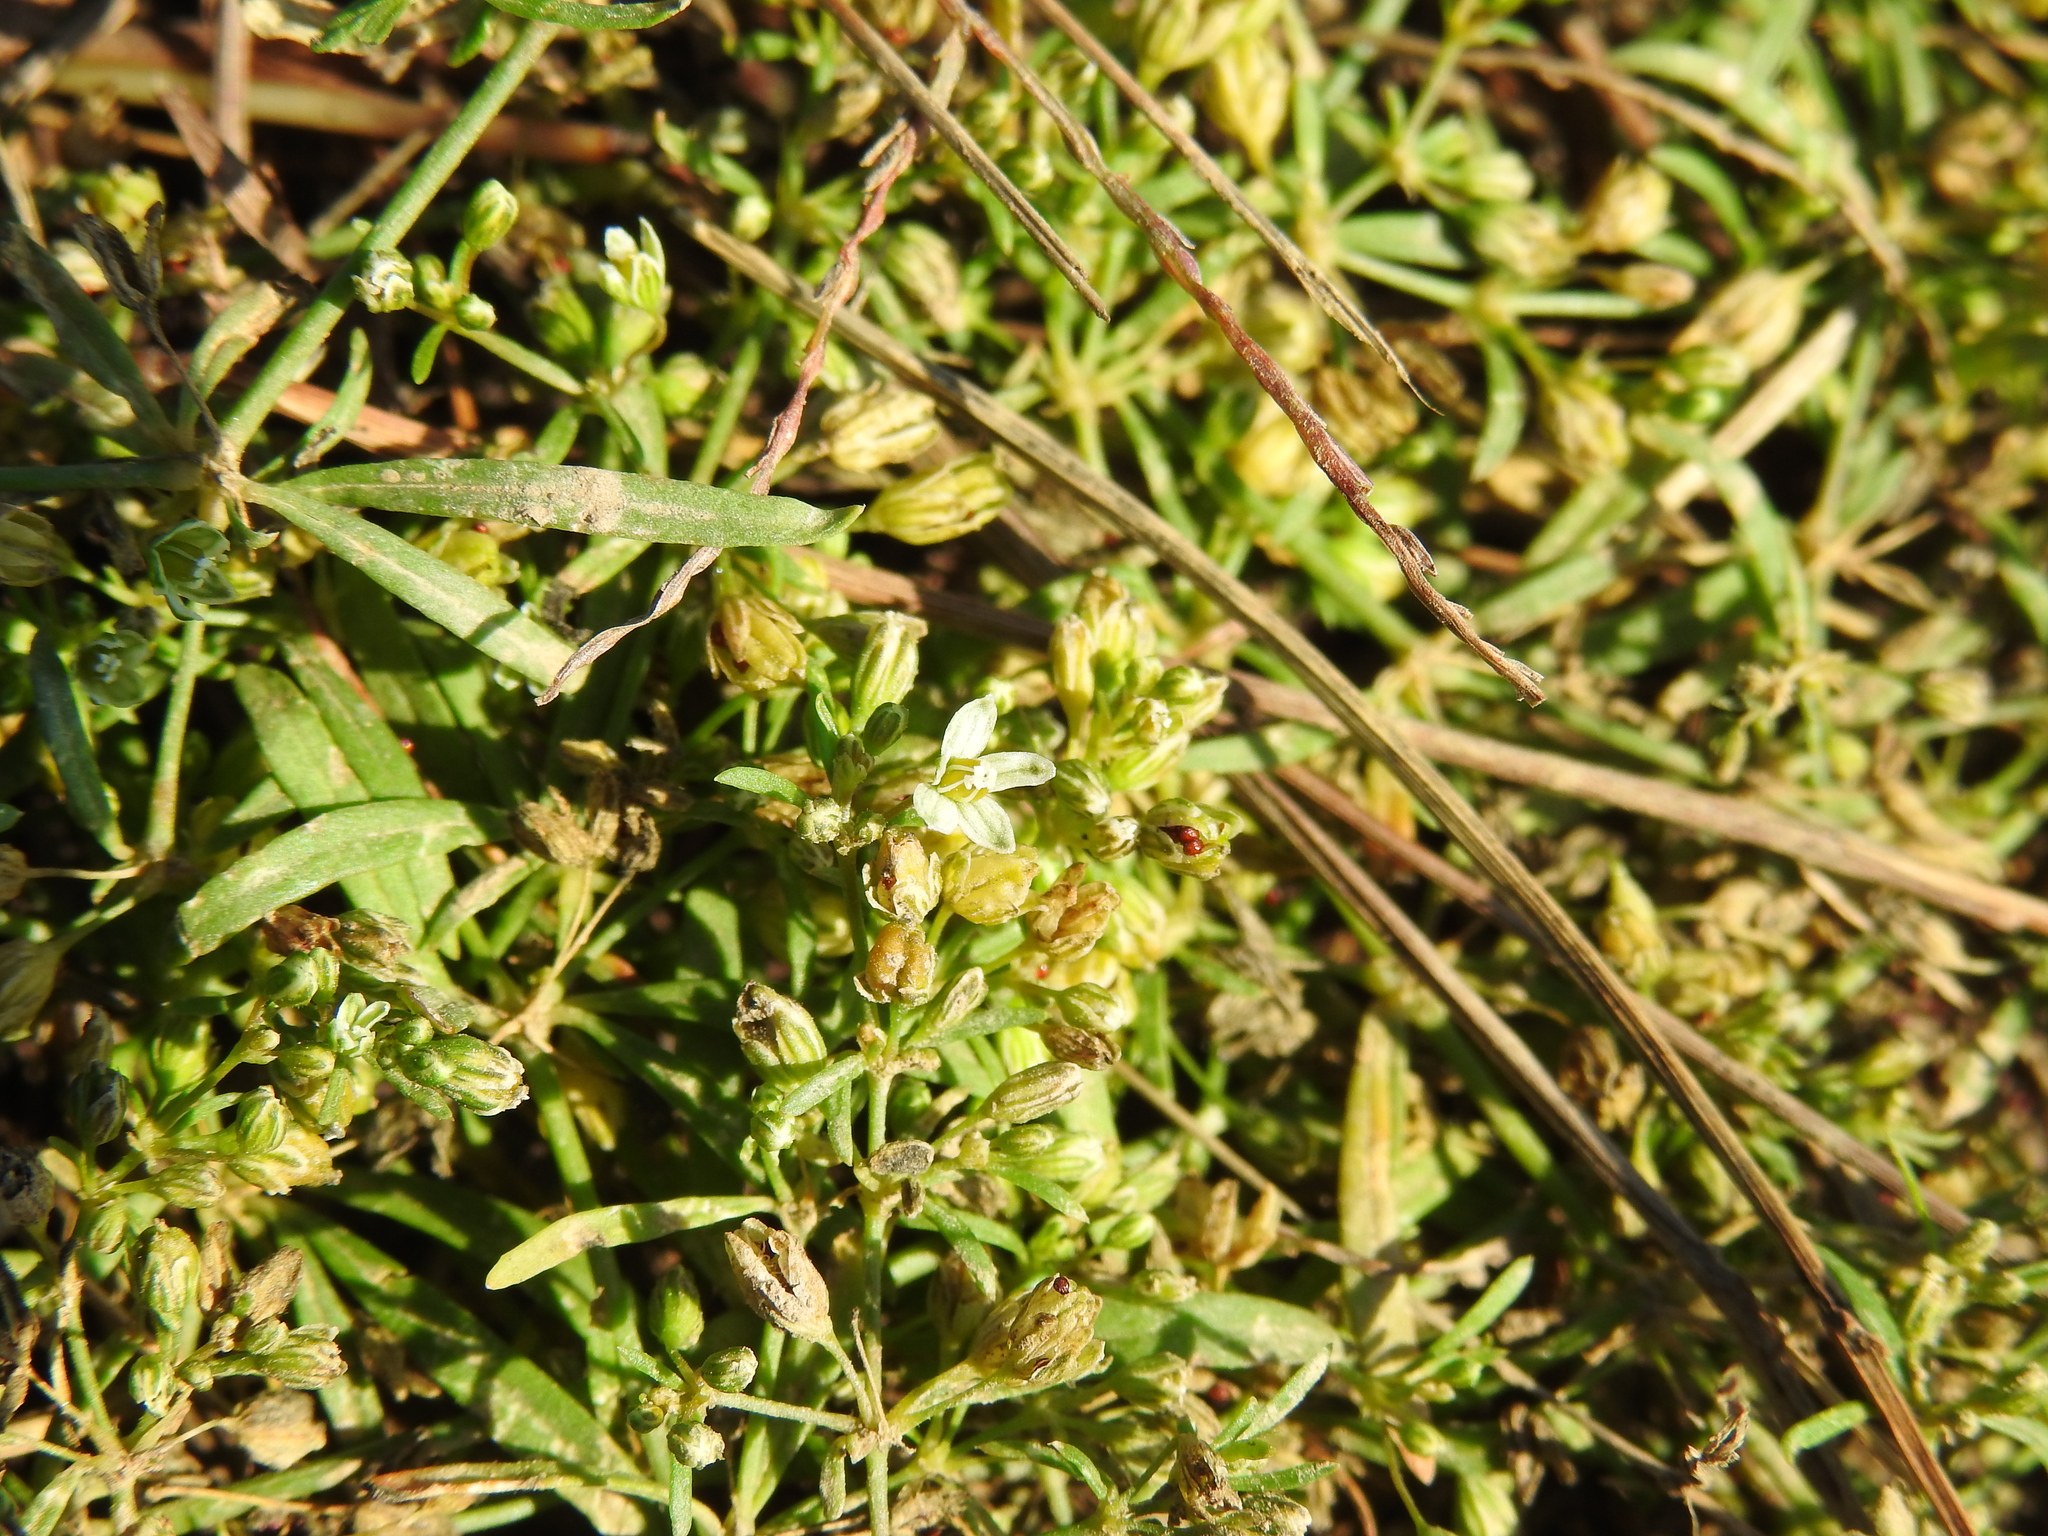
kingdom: Plantae
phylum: Tracheophyta
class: Magnoliopsida
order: Caryophyllales
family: Molluginaceae
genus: Mollugo
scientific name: Mollugo verticillata
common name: Green carpetweed
